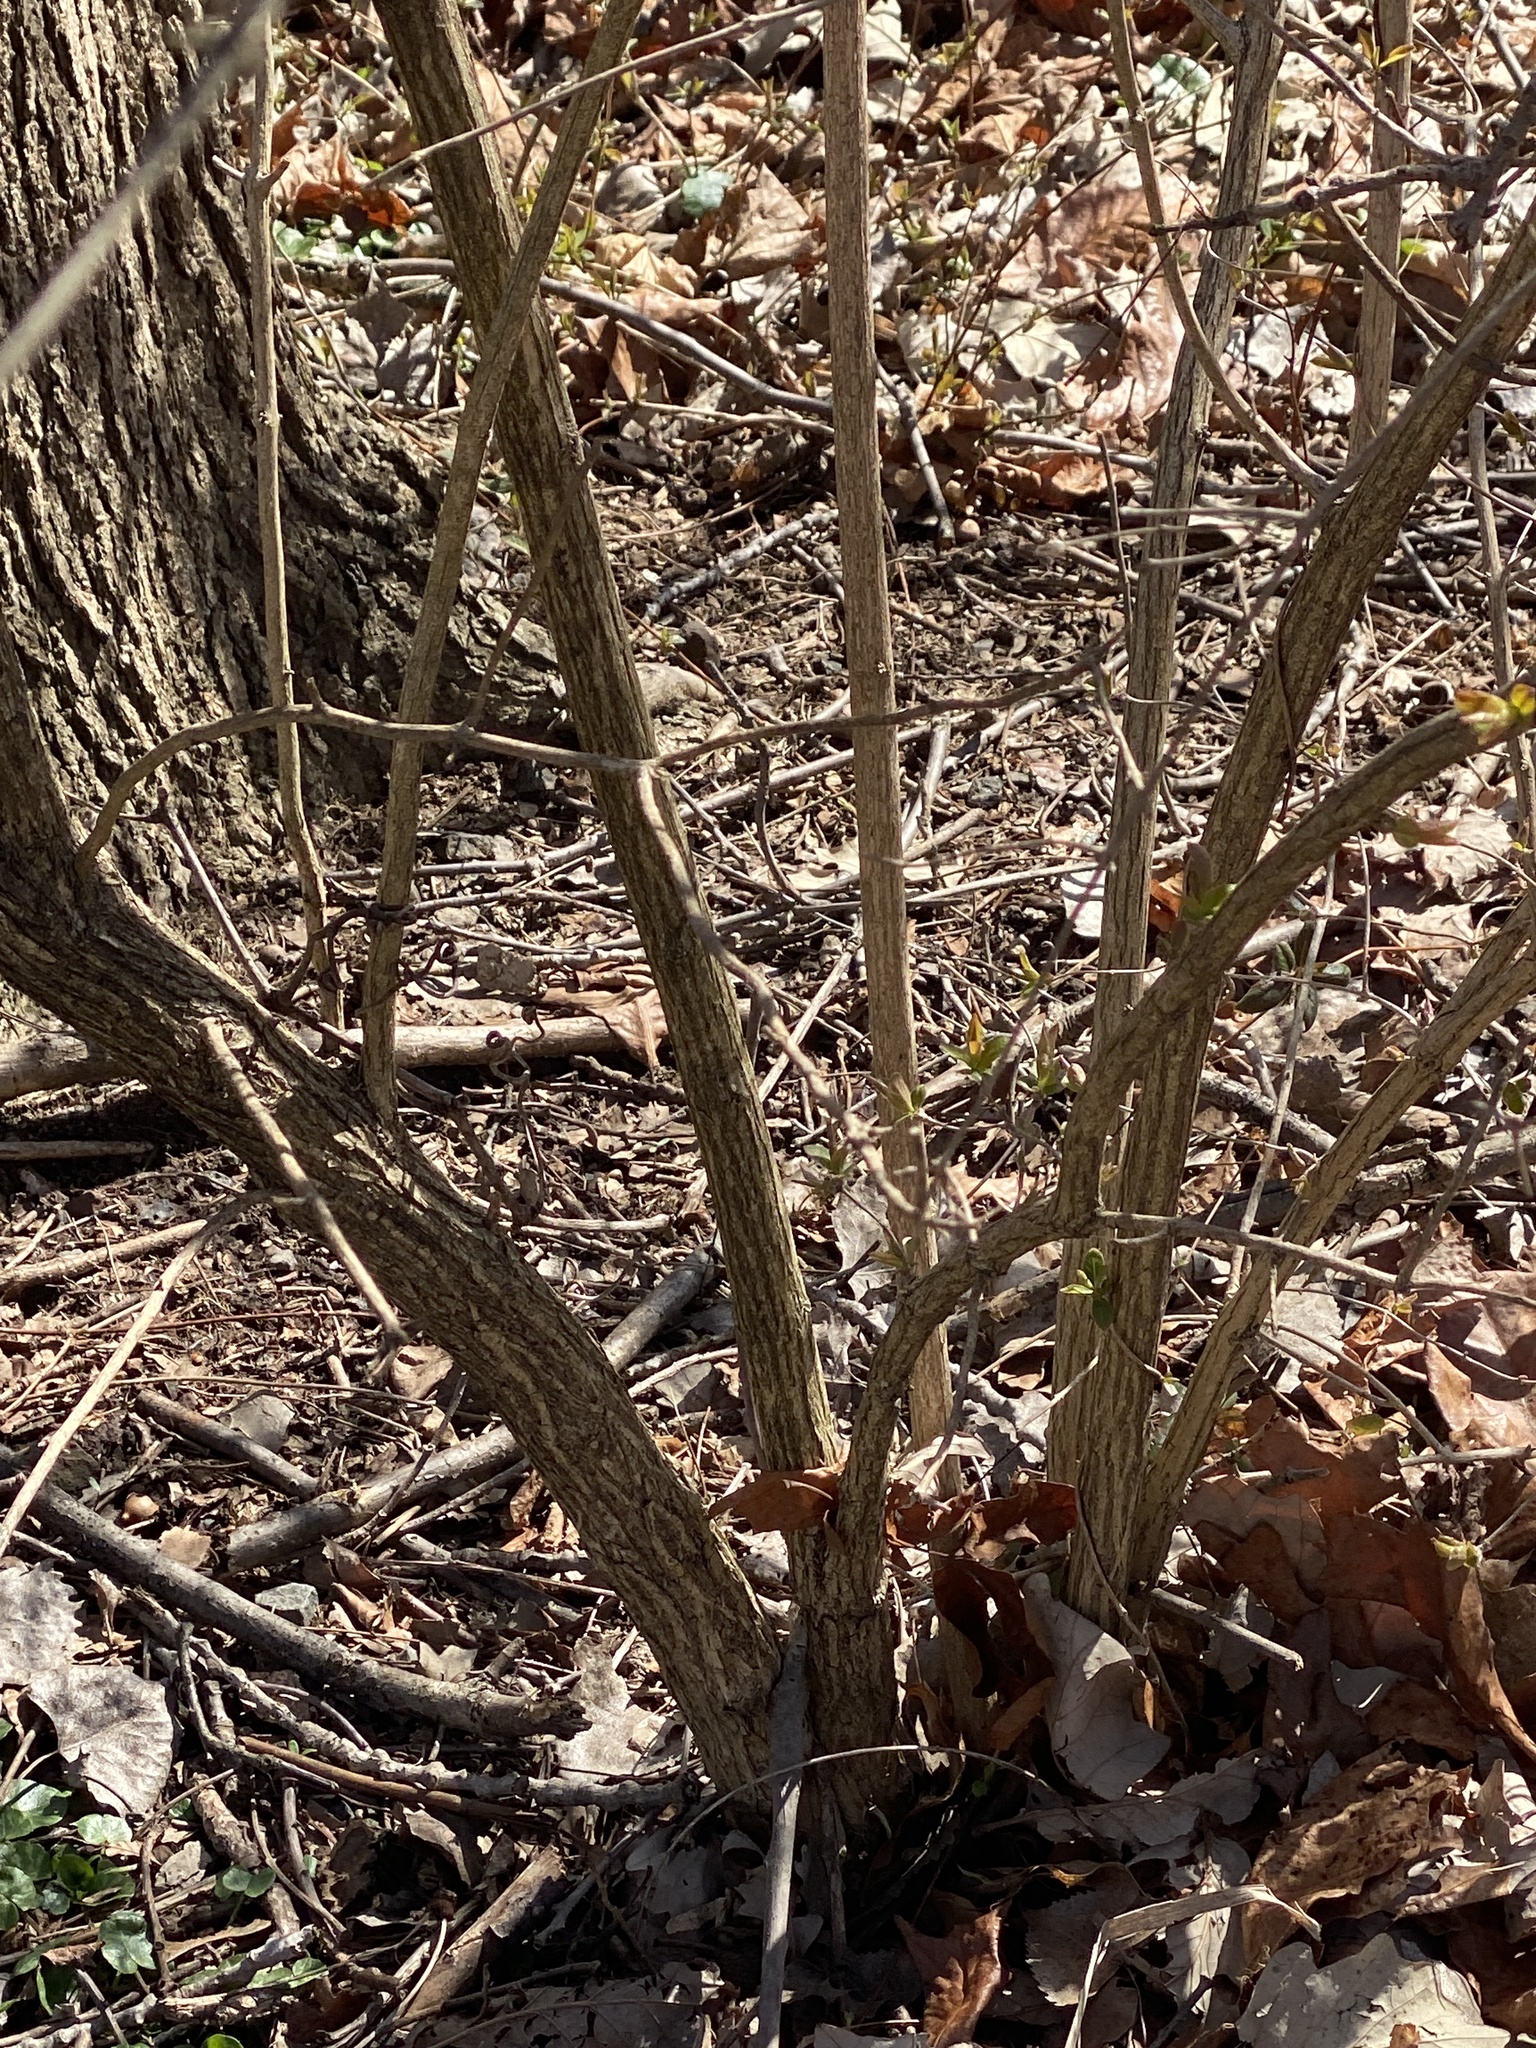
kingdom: Plantae
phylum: Tracheophyta
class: Magnoliopsida
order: Dipsacales
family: Caprifoliaceae
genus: Lonicera
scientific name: Lonicera maackii
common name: Amur honeysuckle
